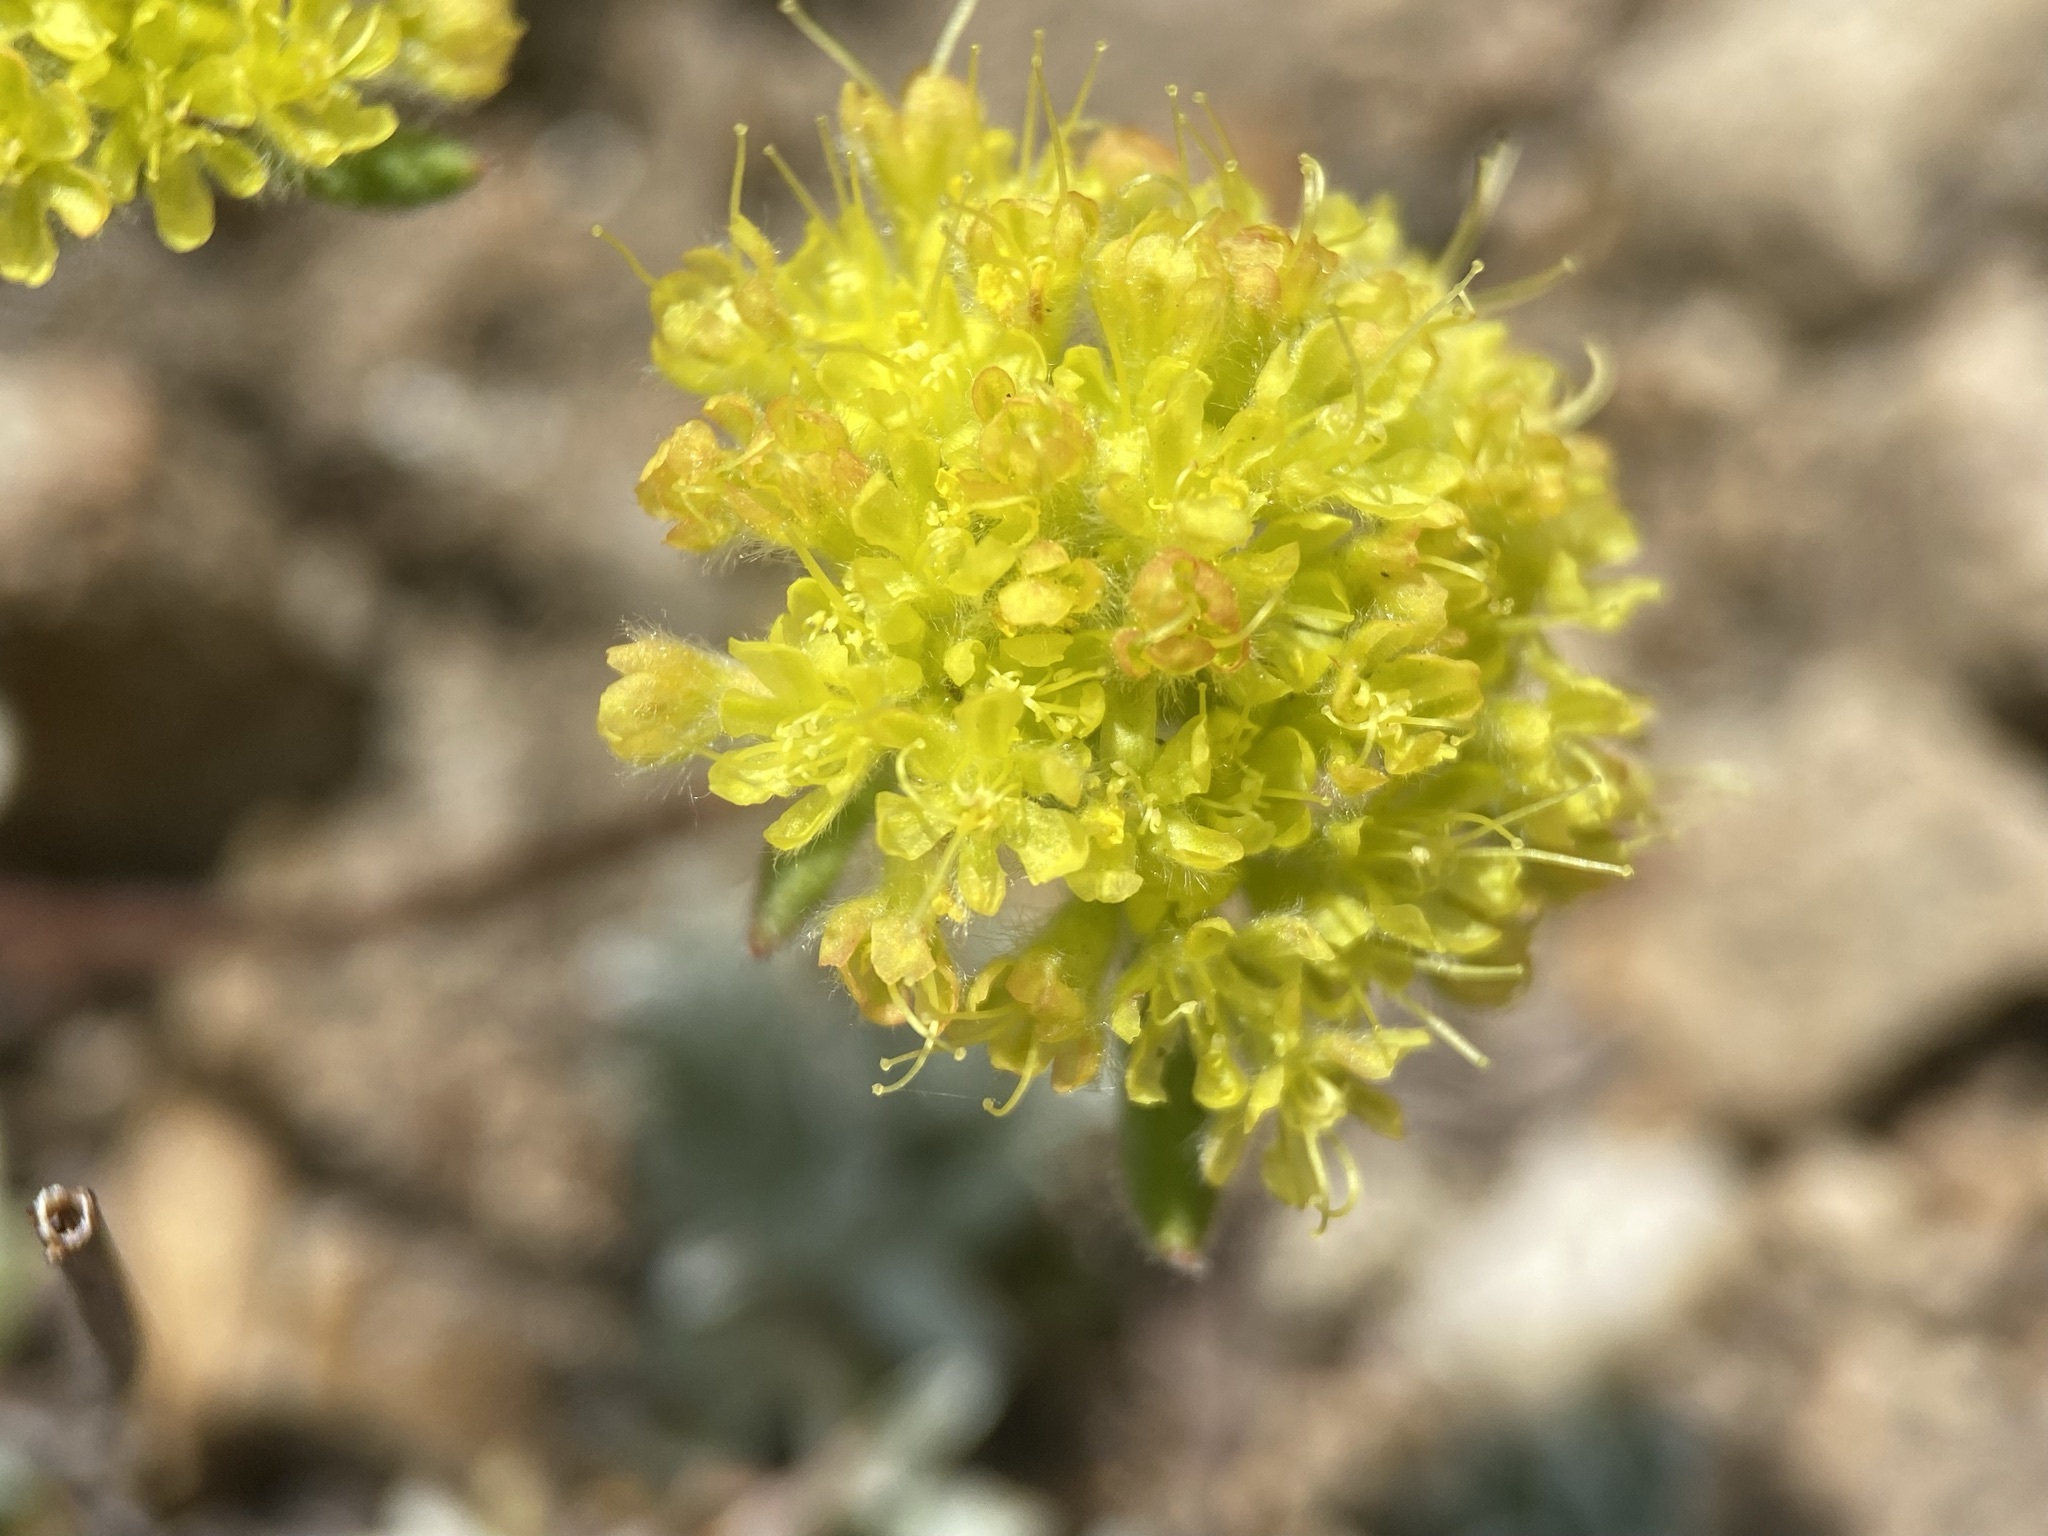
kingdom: Plantae
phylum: Tracheophyta
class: Magnoliopsida
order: Caryophyllales
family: Polygonaceae
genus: Eriogonum
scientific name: Eriogonum flavum
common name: Alpine golden wild buckwheat
